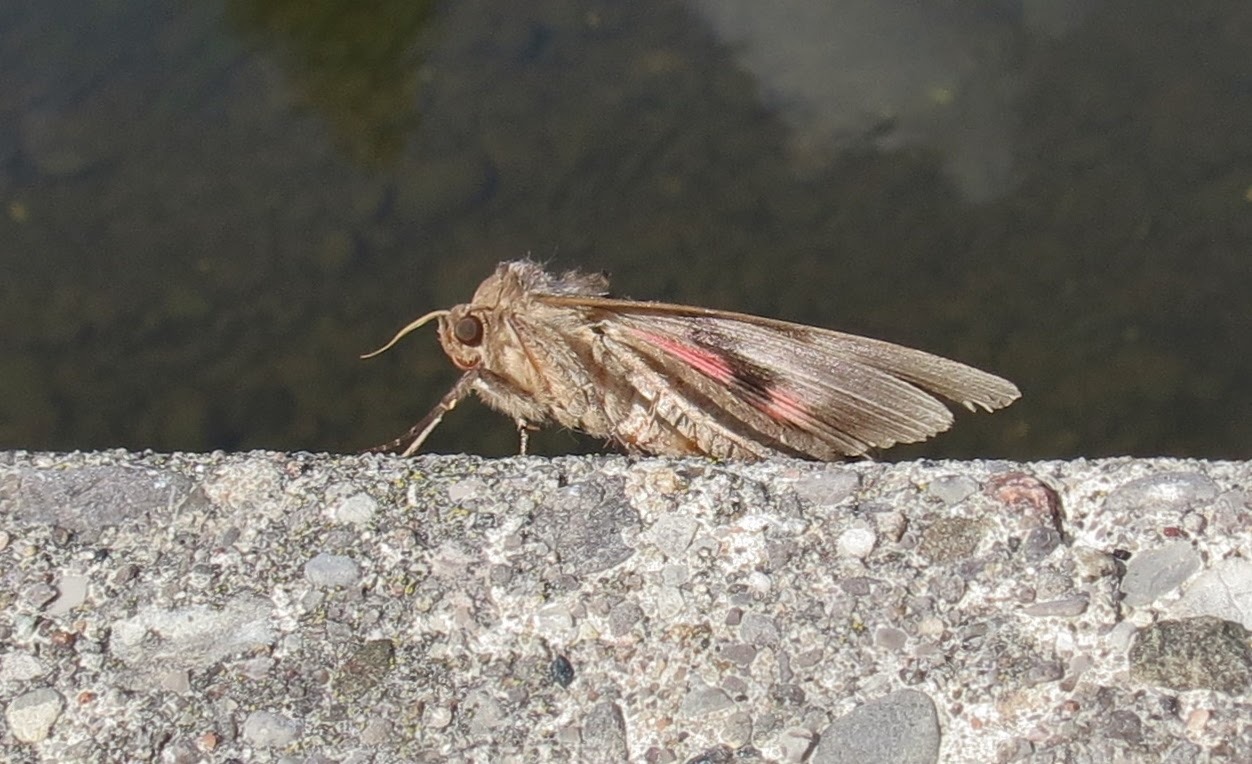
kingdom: Animalia
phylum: Arthropoda
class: Insecta
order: Lepidoptera
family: Erebidae
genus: Catocala
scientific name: Catocala cara
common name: Darling underwing
